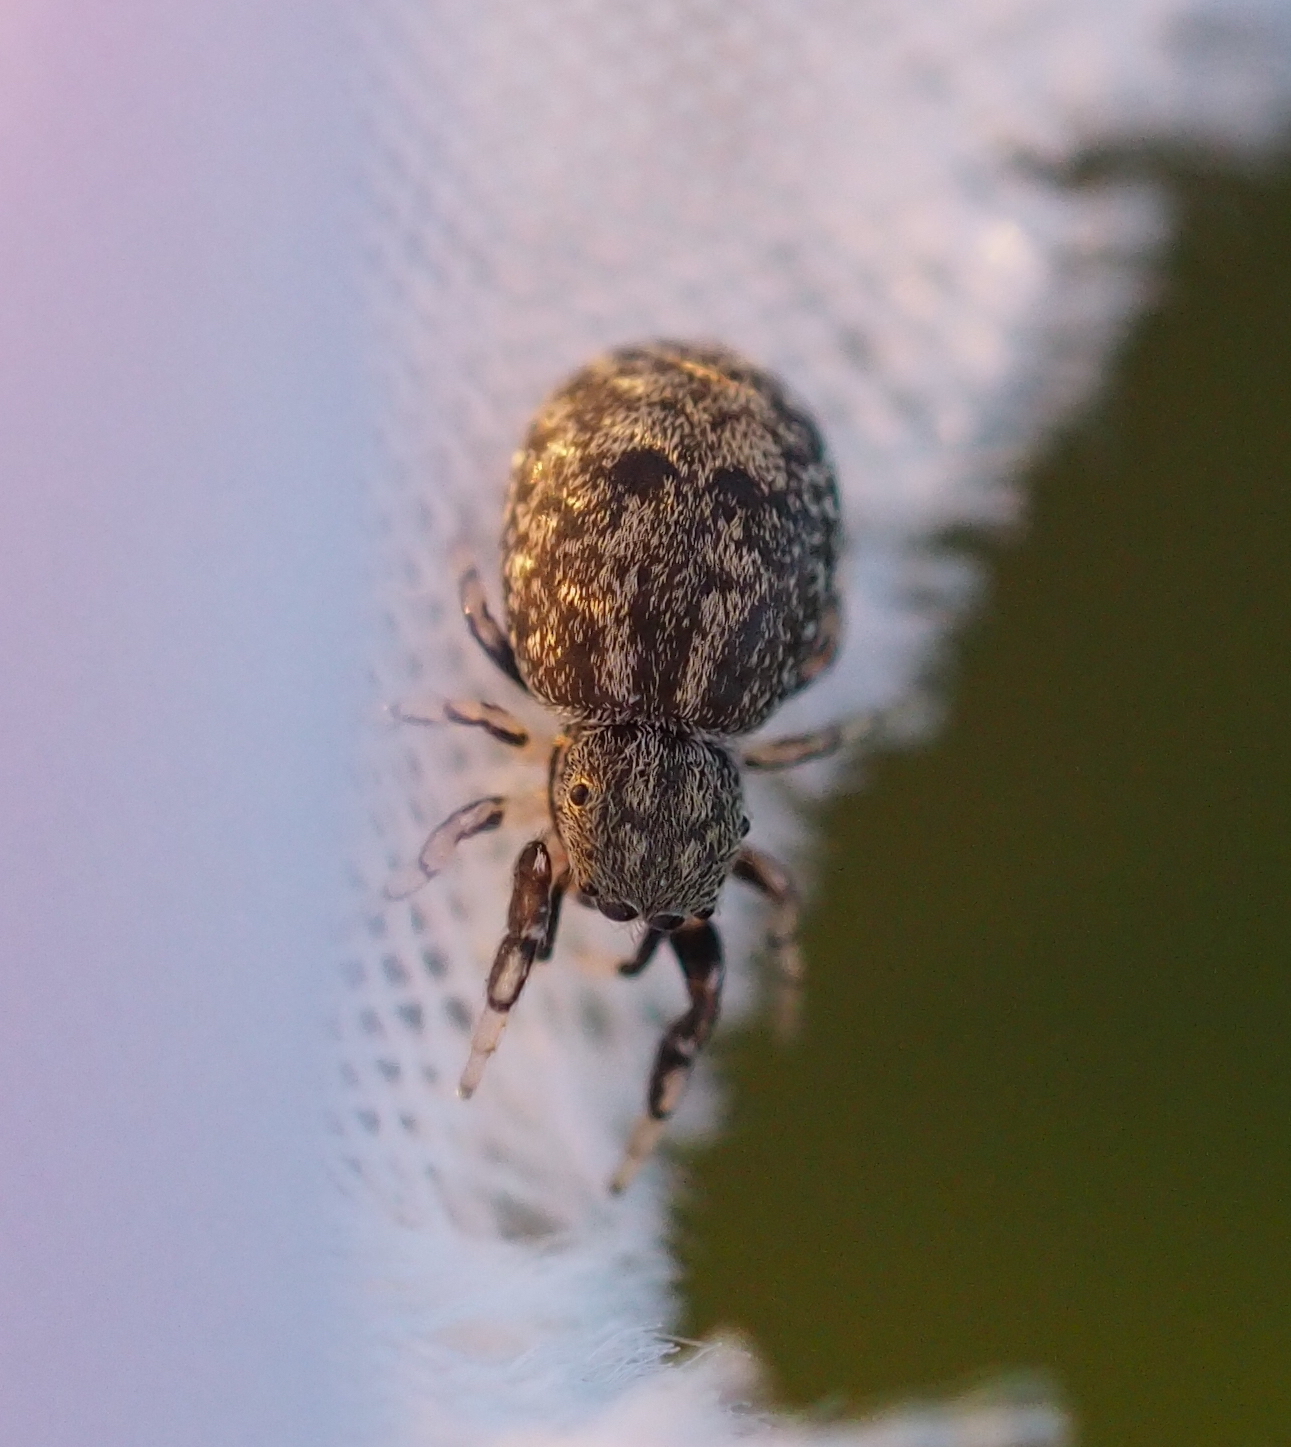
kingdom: Animalia
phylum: Arthropoda
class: Arachnida
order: Araneae
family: Salticidae
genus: Ballus
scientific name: Ballus chalybeius
